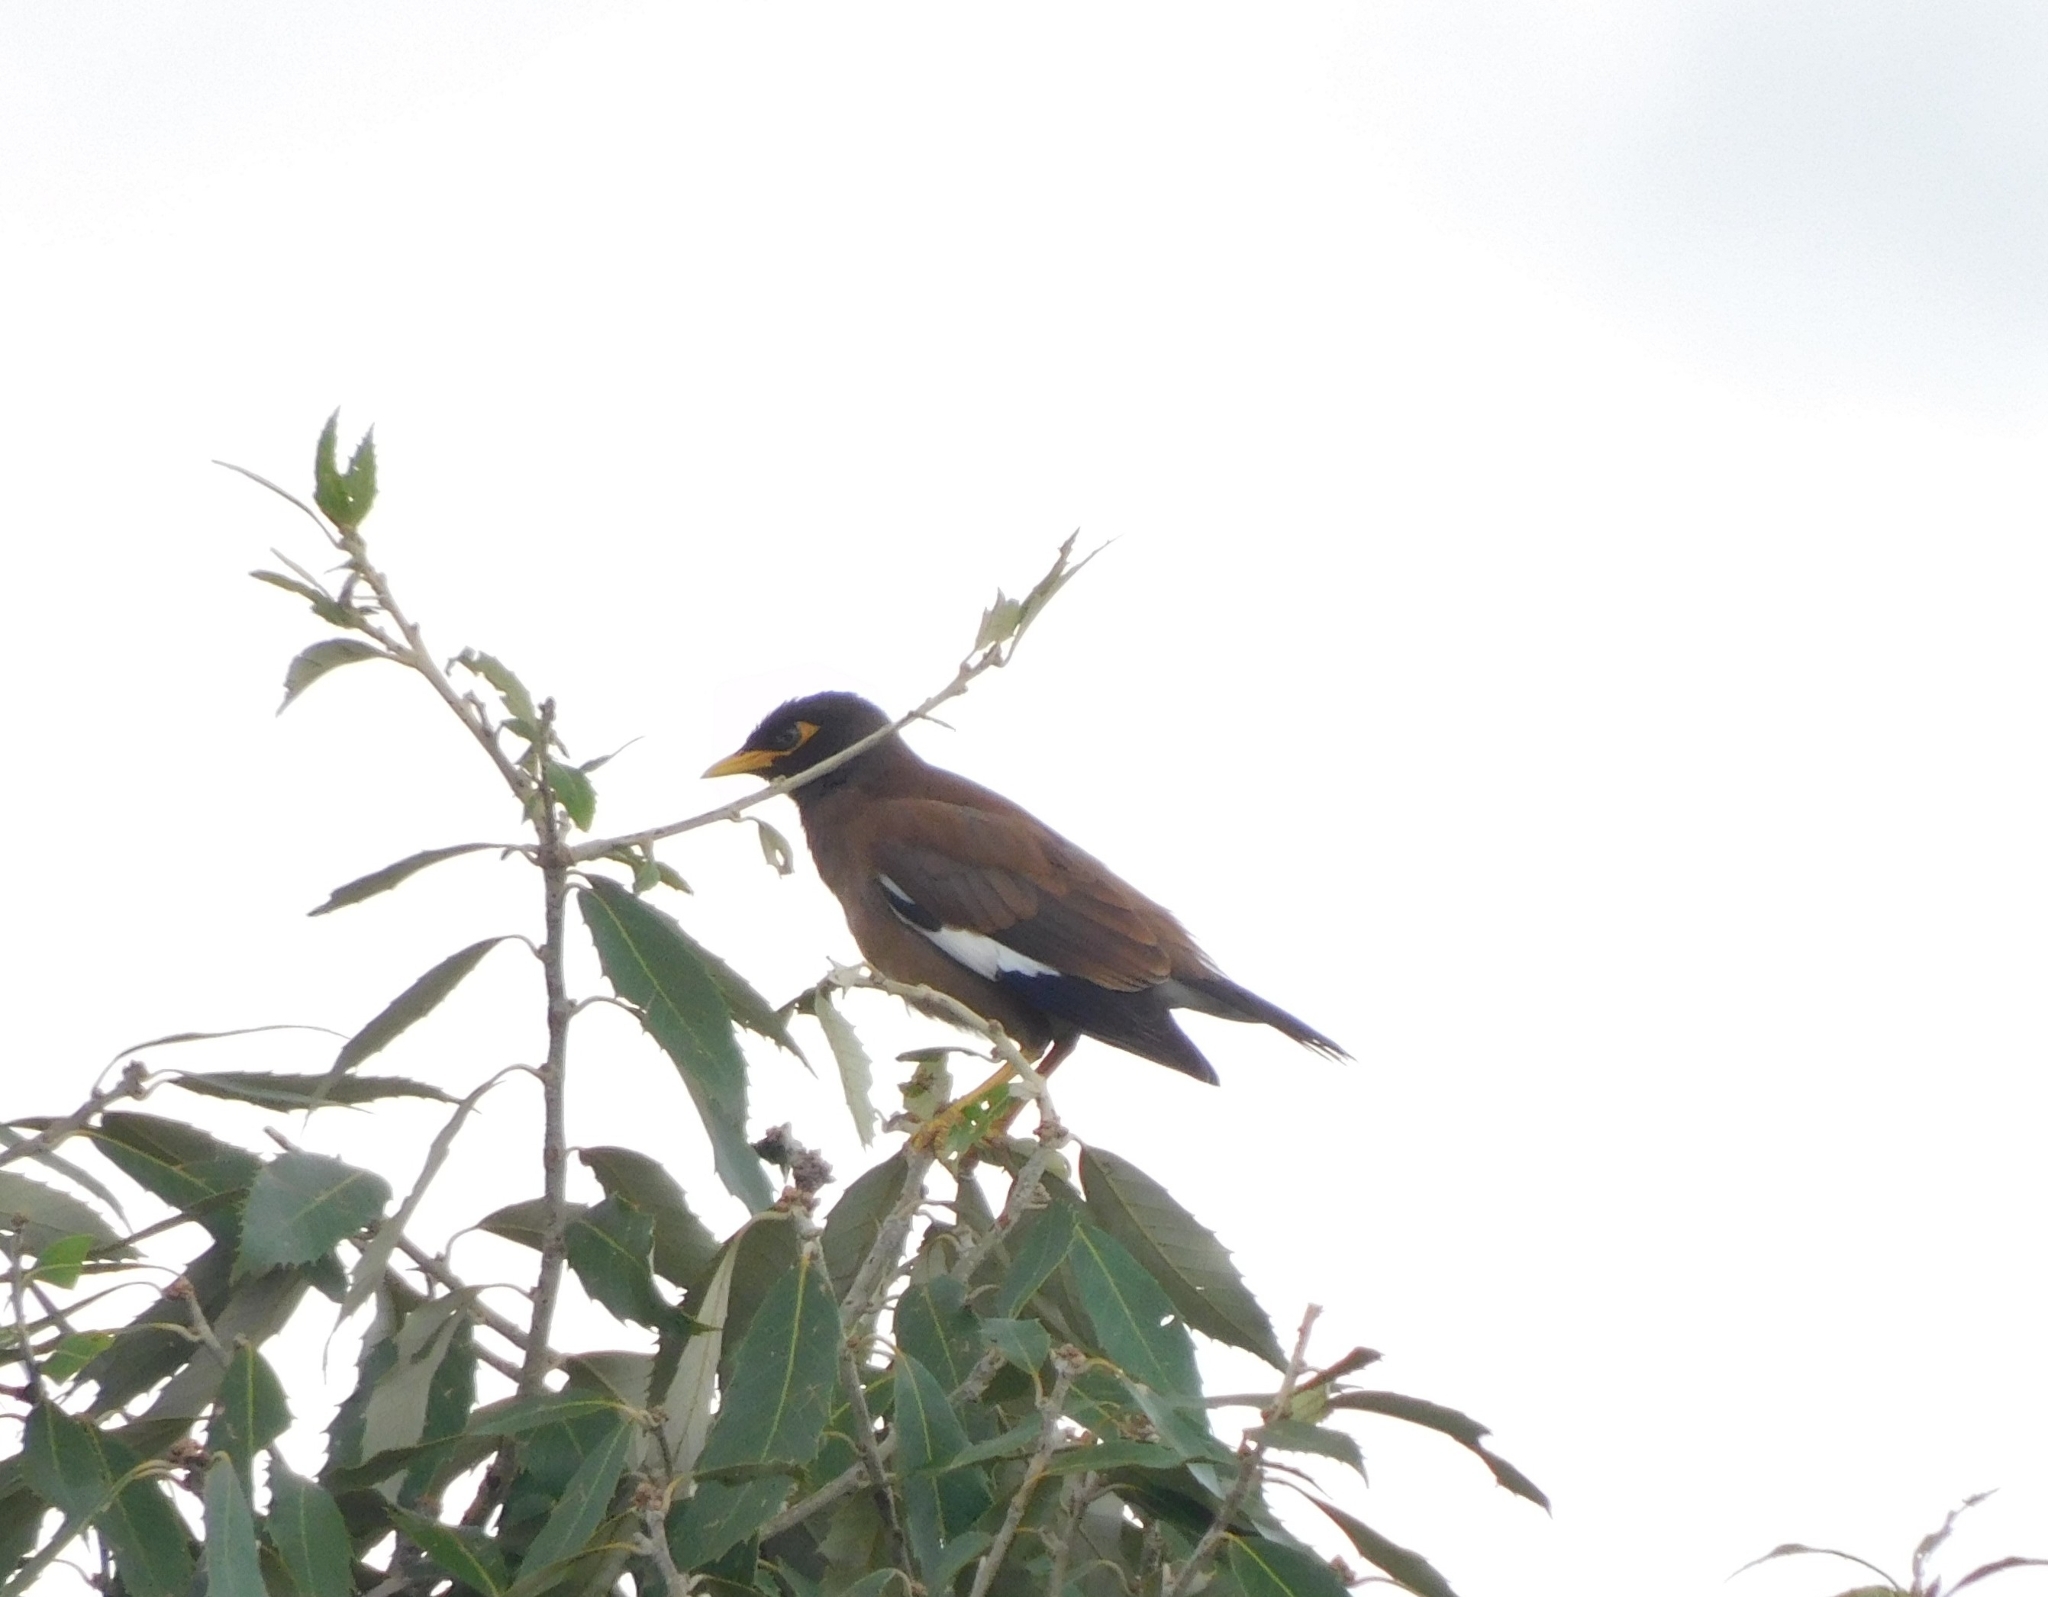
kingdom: Animalia
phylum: Chordata
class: Aves
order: Passeriformes
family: Sturnidae
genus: Acridotheres
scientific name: Acridotheres tristis
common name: Common myna
